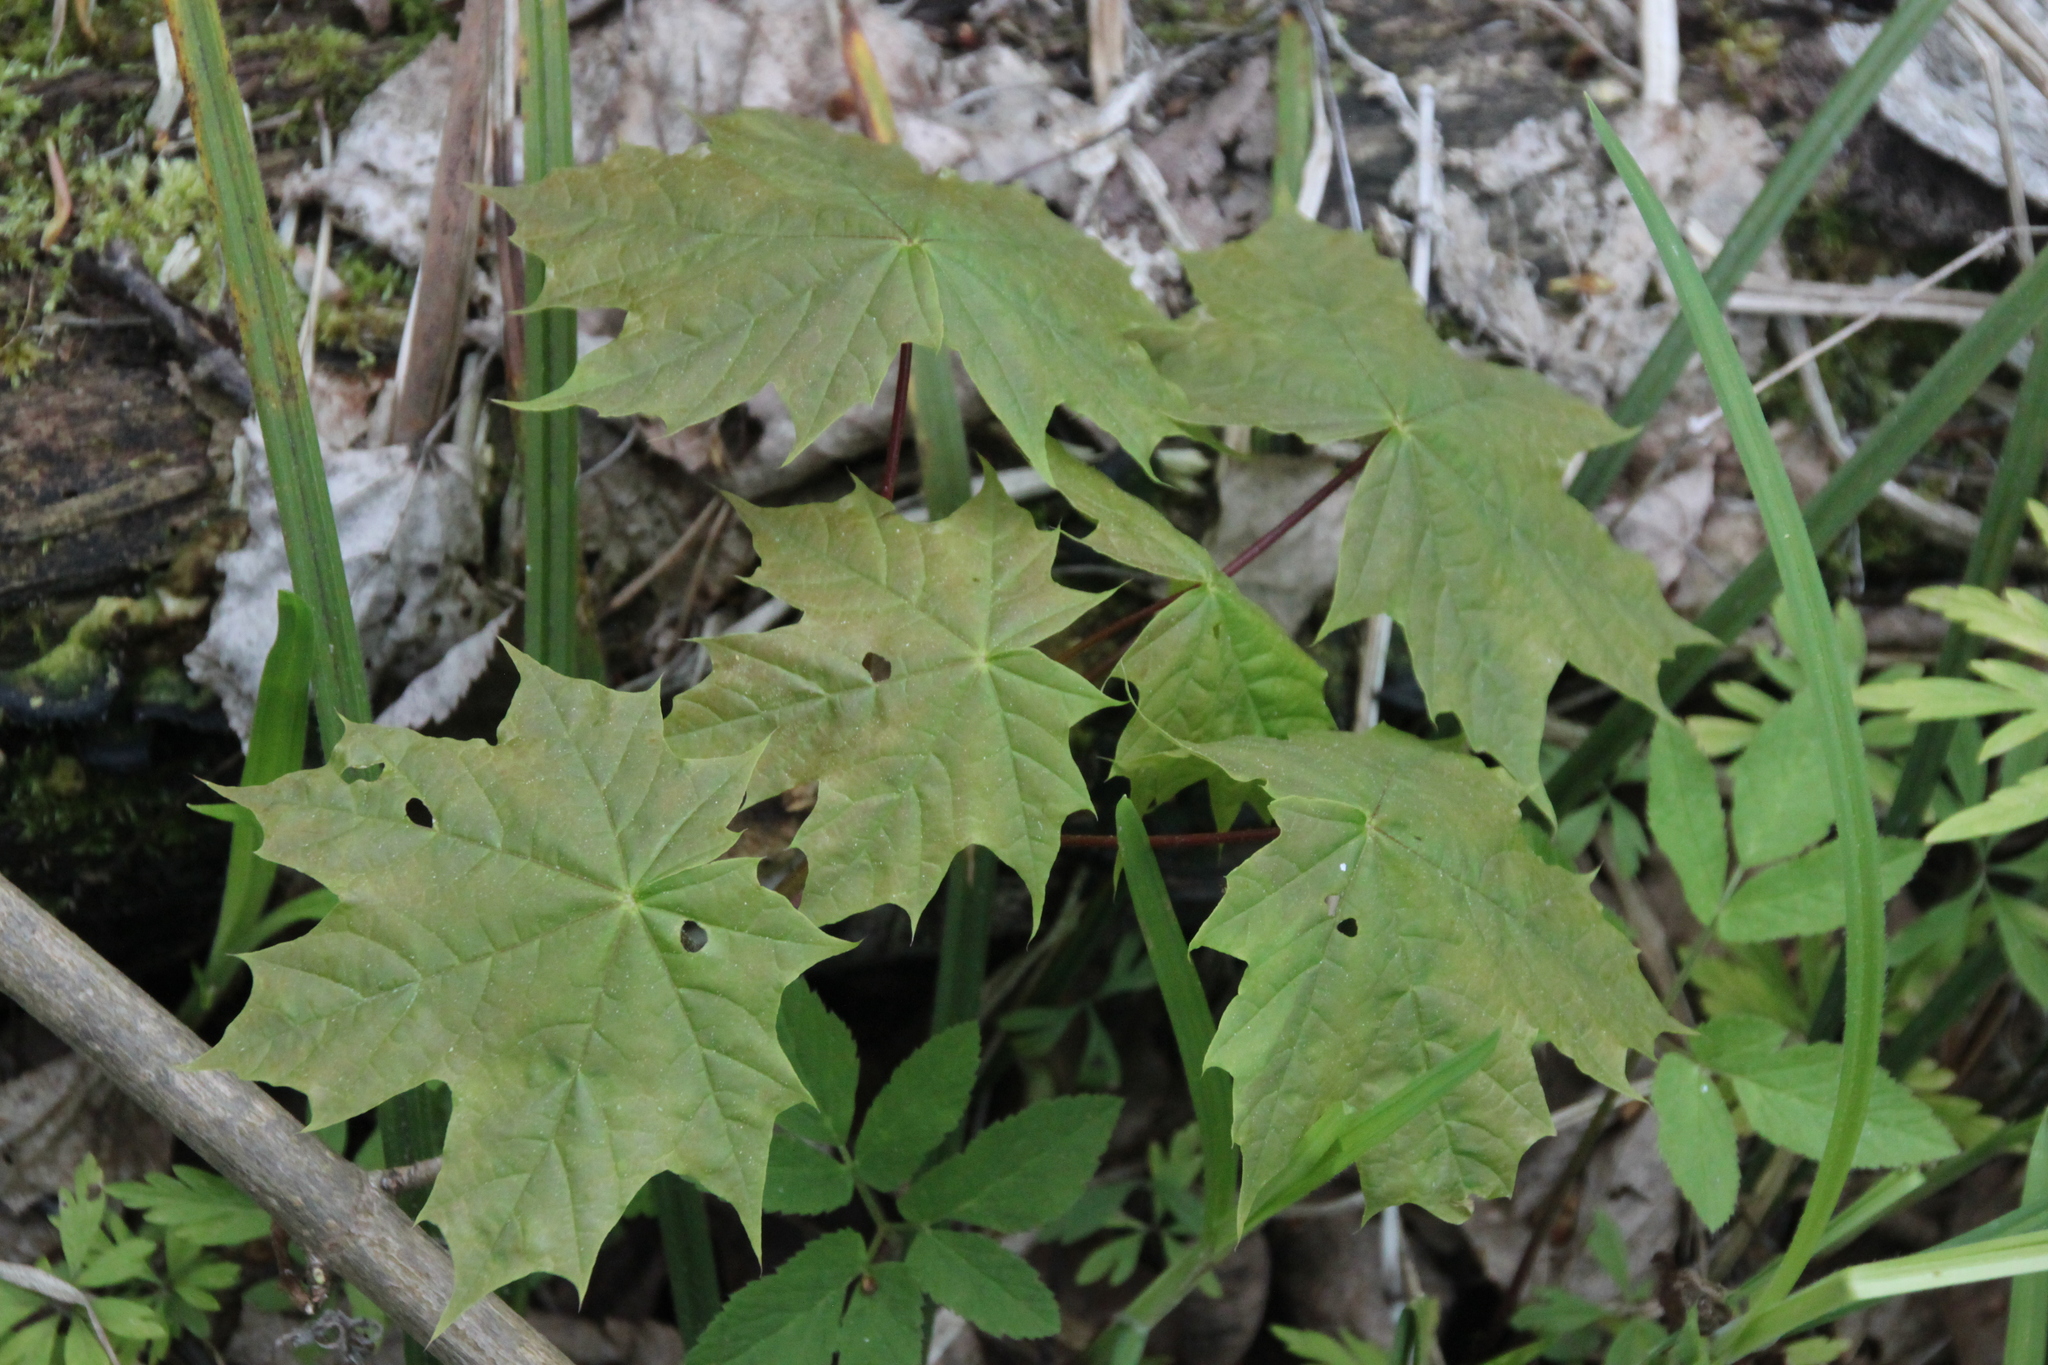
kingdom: Plantae
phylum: Tracheophyta
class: Magnoliopsida
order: Sapindales
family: Sapindaceae
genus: Acer
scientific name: Acer platanoides
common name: Norway maple
